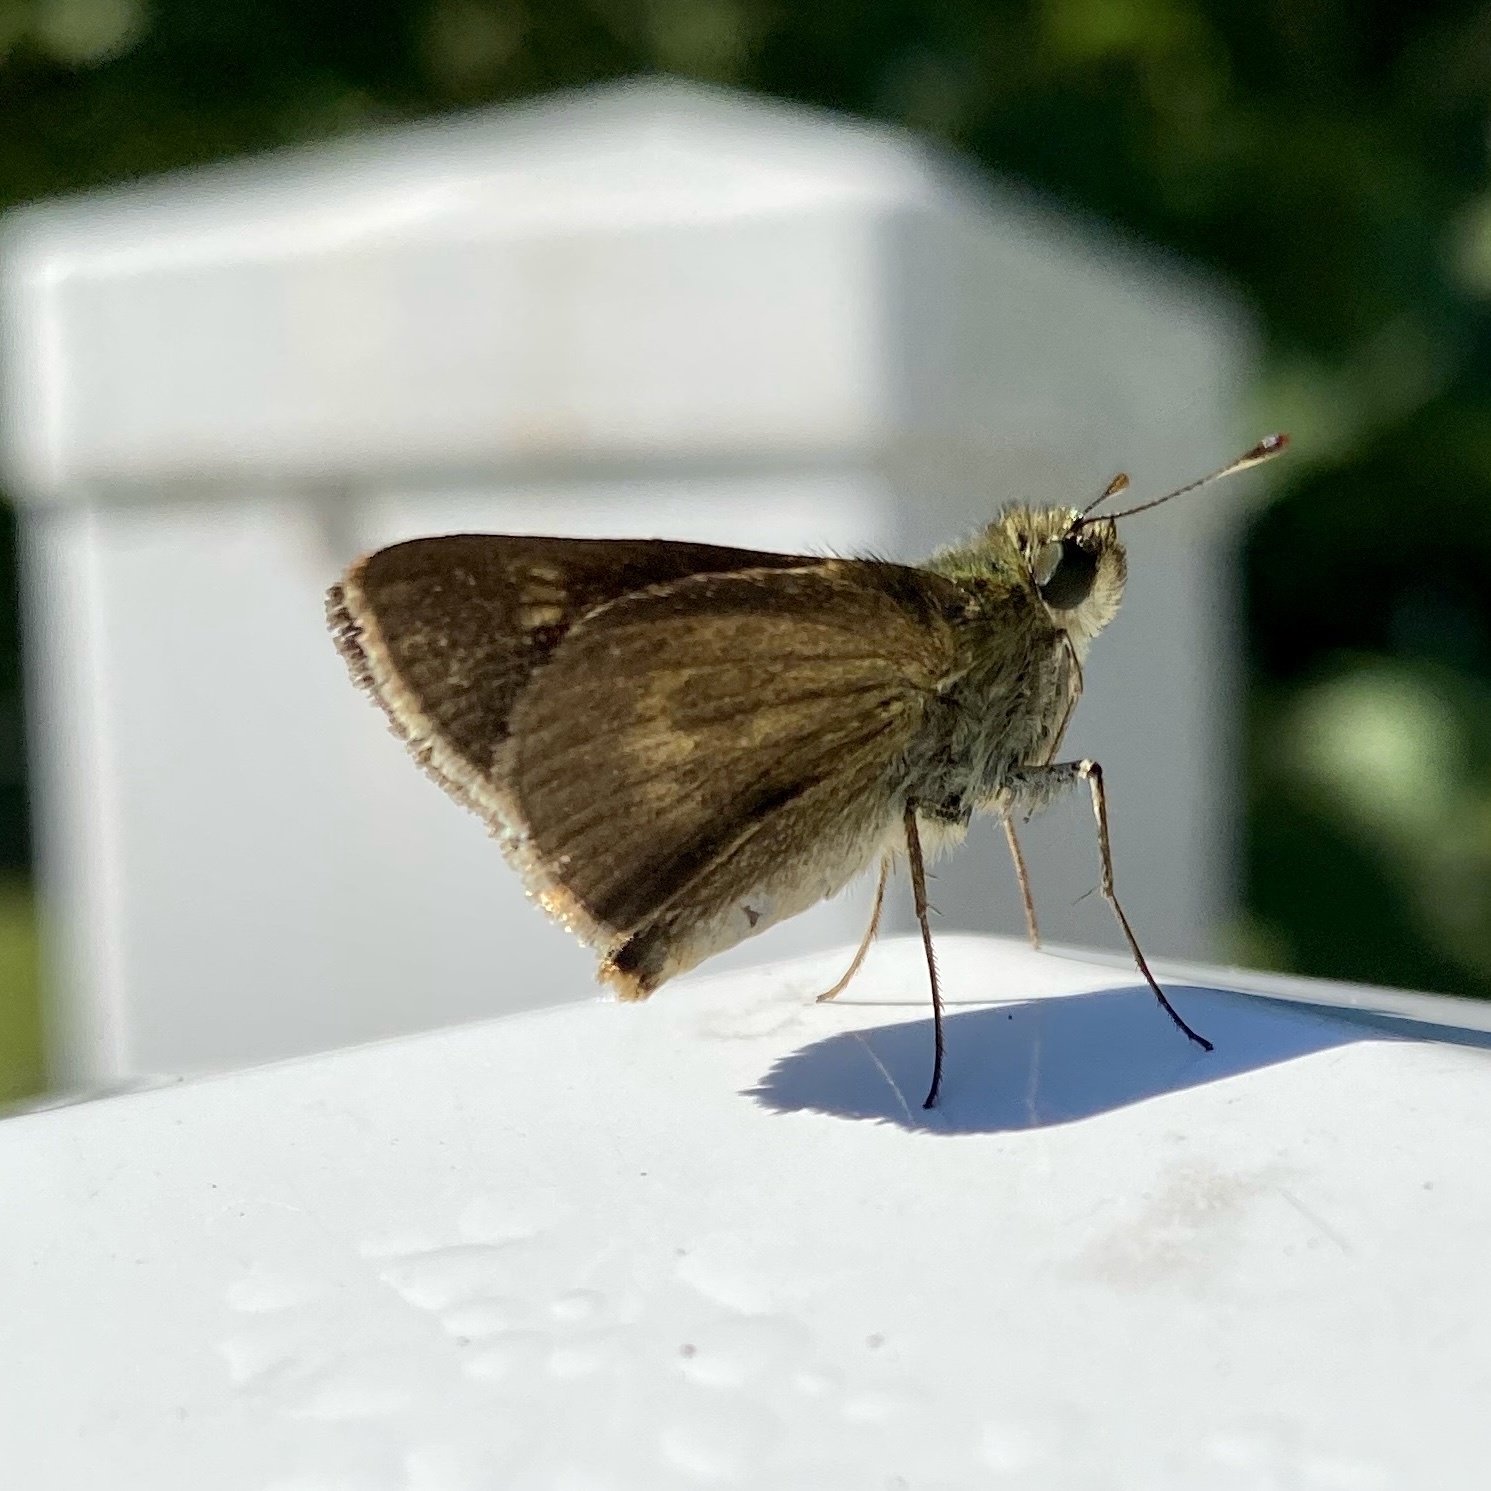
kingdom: Animalia
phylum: Arthropoda
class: Insecta
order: Lepidoptera
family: Hesperiidae
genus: Polites
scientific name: Polites egeremet
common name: Northern broken-dash
